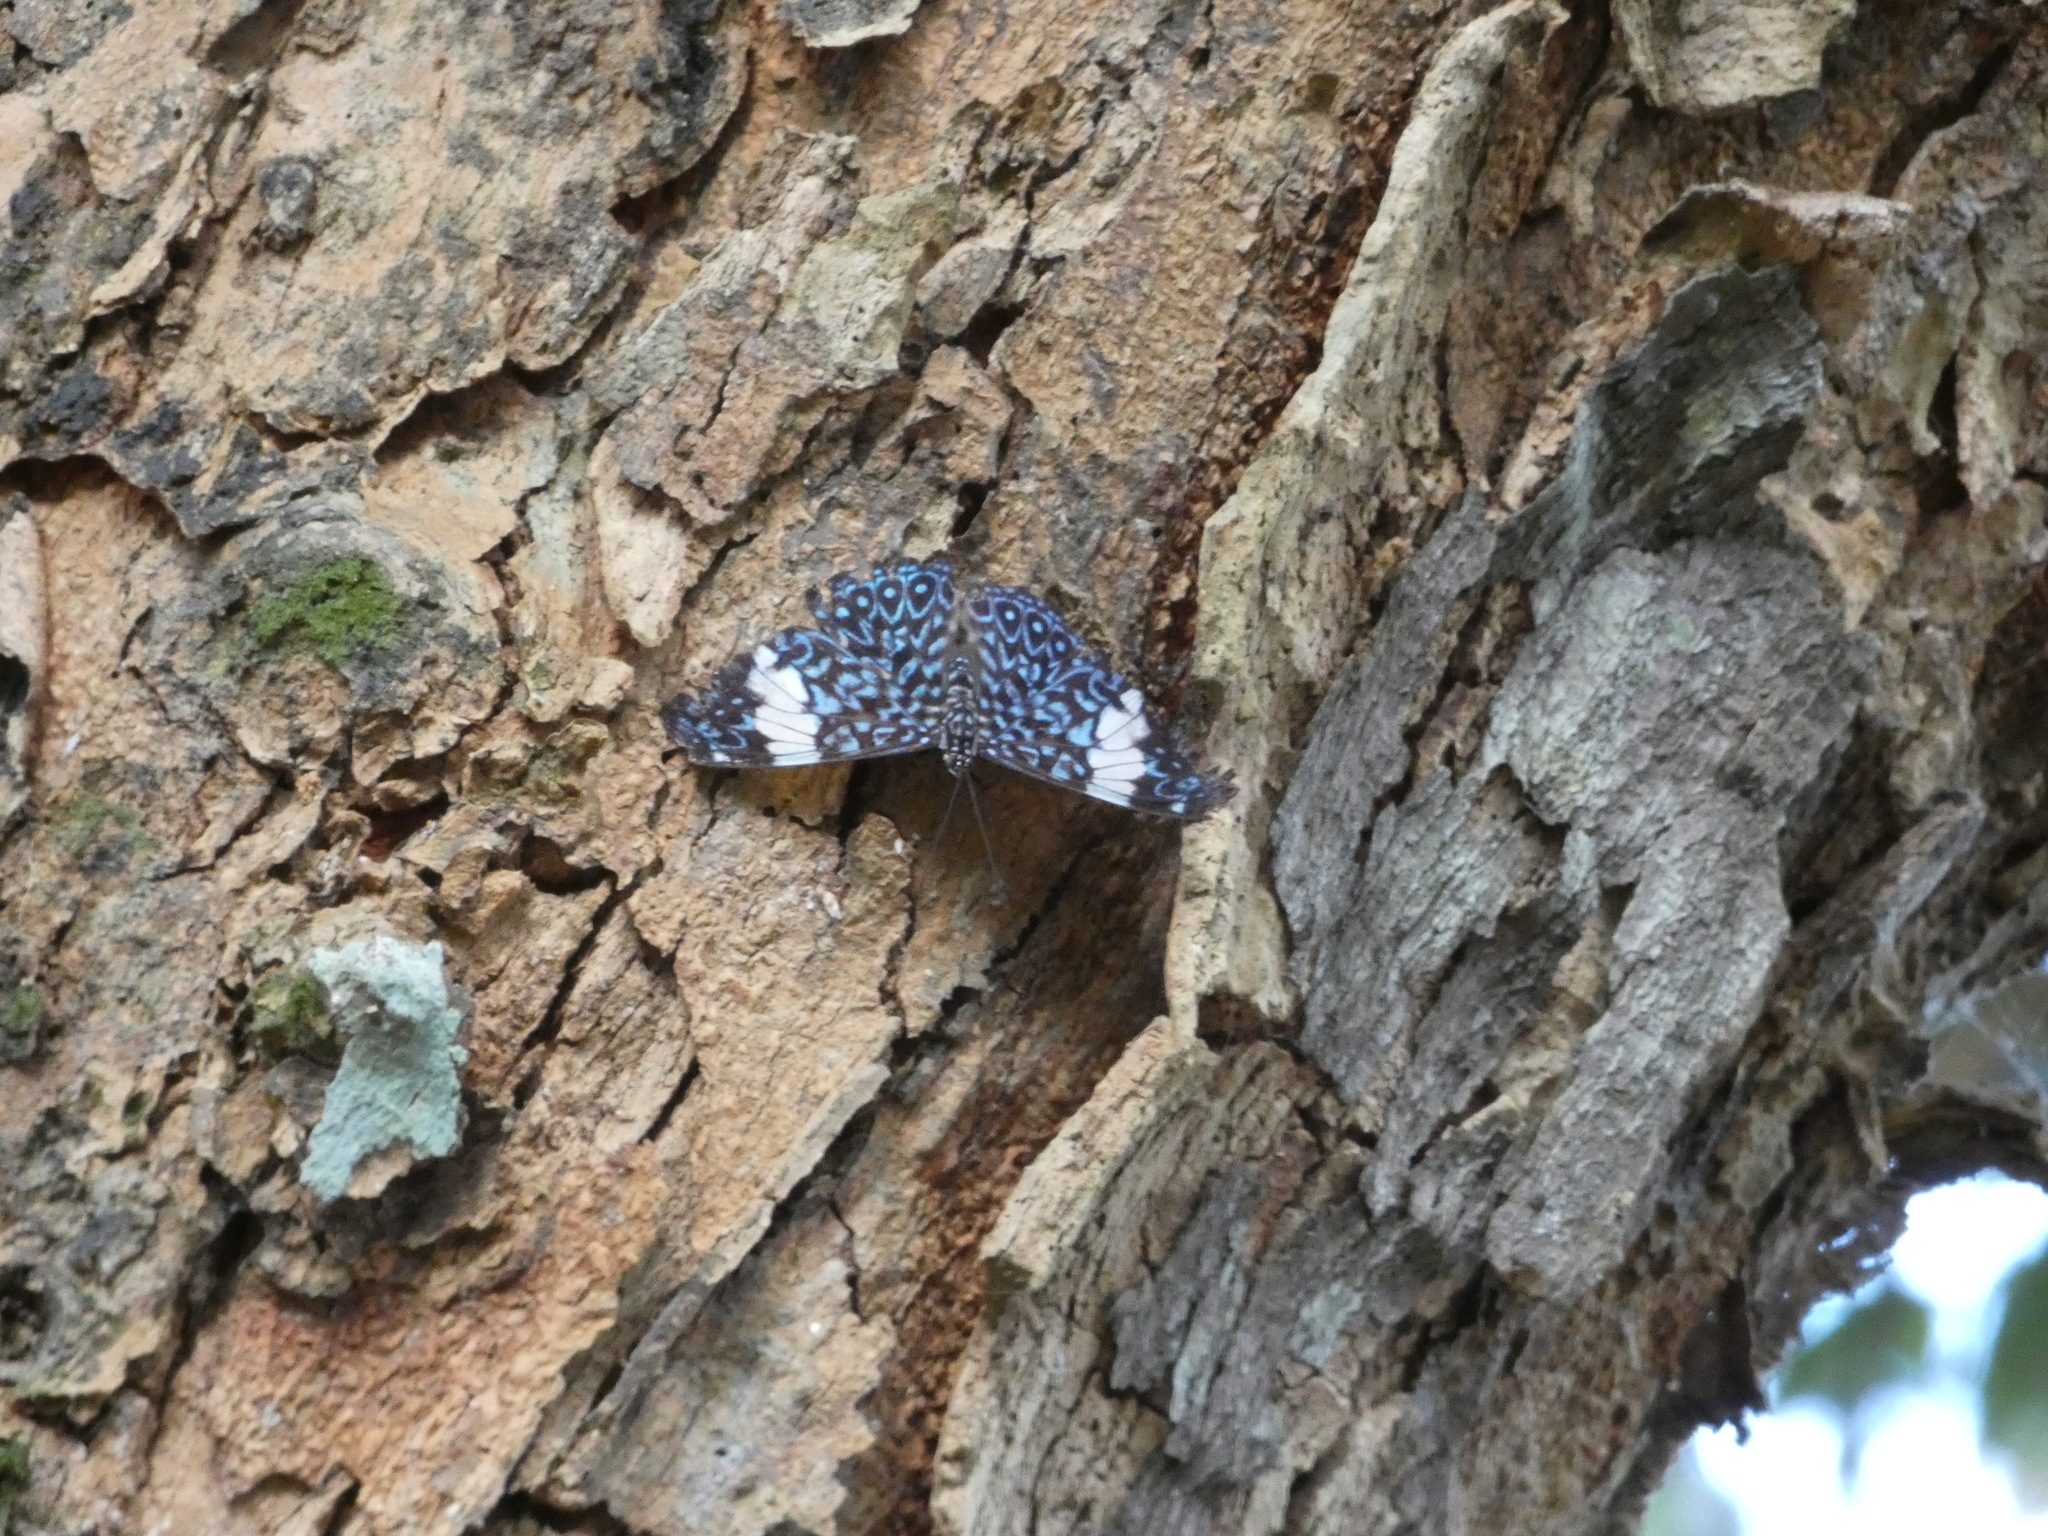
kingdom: Animalia
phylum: Arthropoda
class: Insecta
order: Lepidoptera
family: Nymphalidae
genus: Hamadryas
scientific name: Hamadryas amphinome
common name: Red cracker
